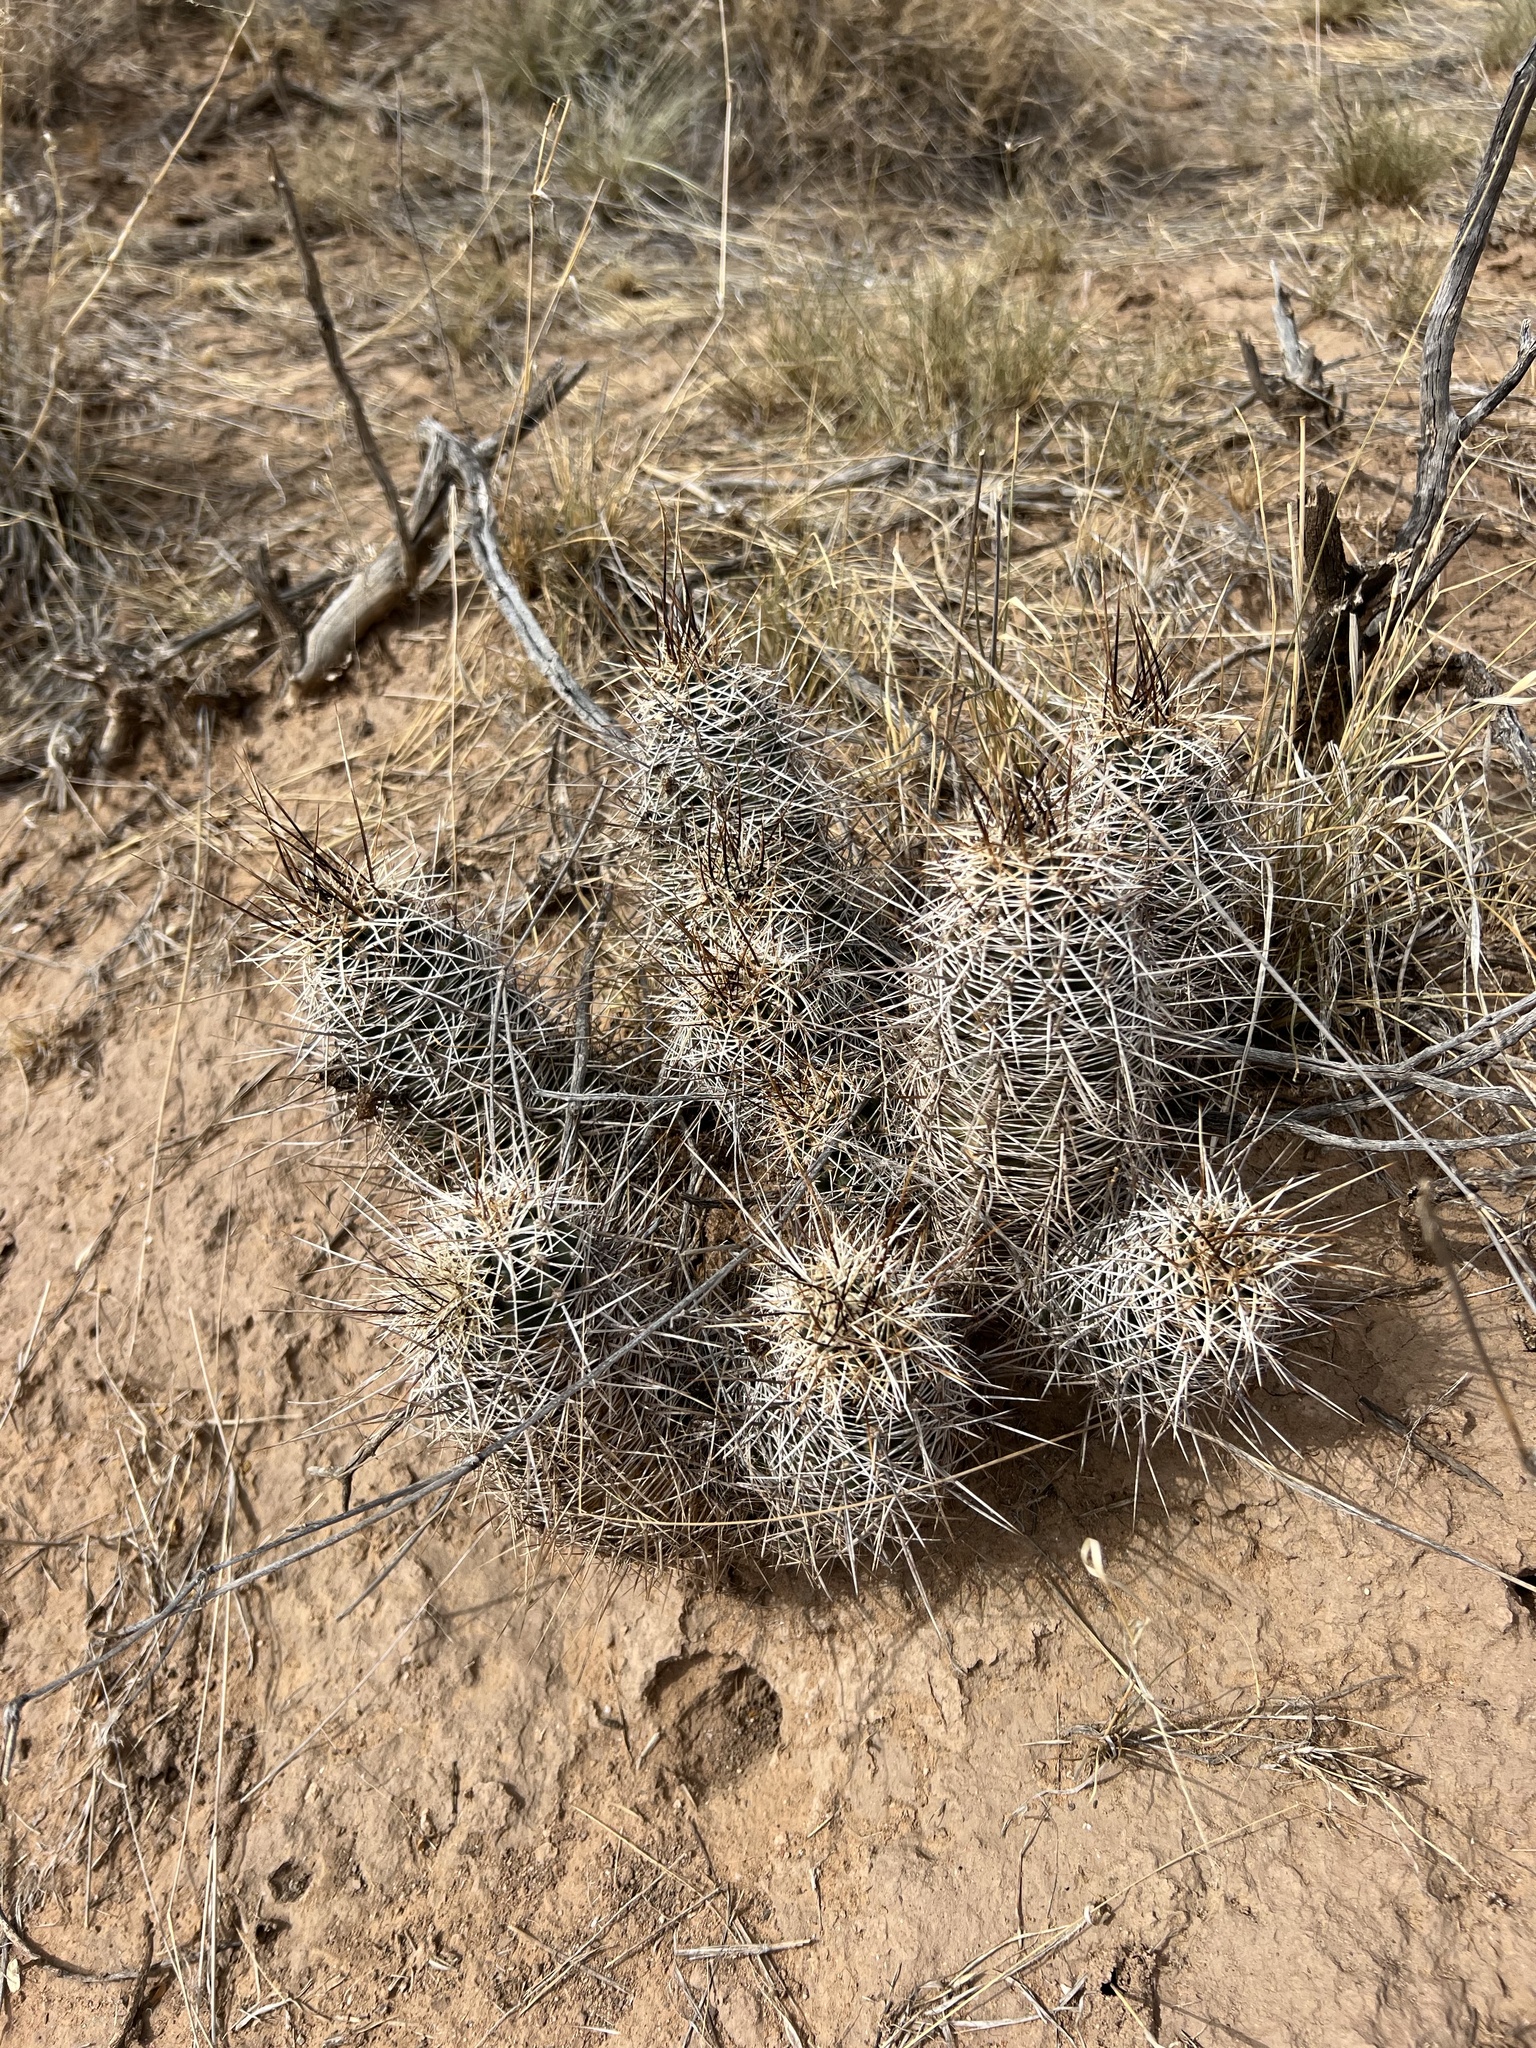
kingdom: Plantae
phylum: Tracheophyta
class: Magnoliopsida
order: Caryophyllales
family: Cactaceae
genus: Echinocereus
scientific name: Echinocereus fasciculatus
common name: Bundle hedgehog
